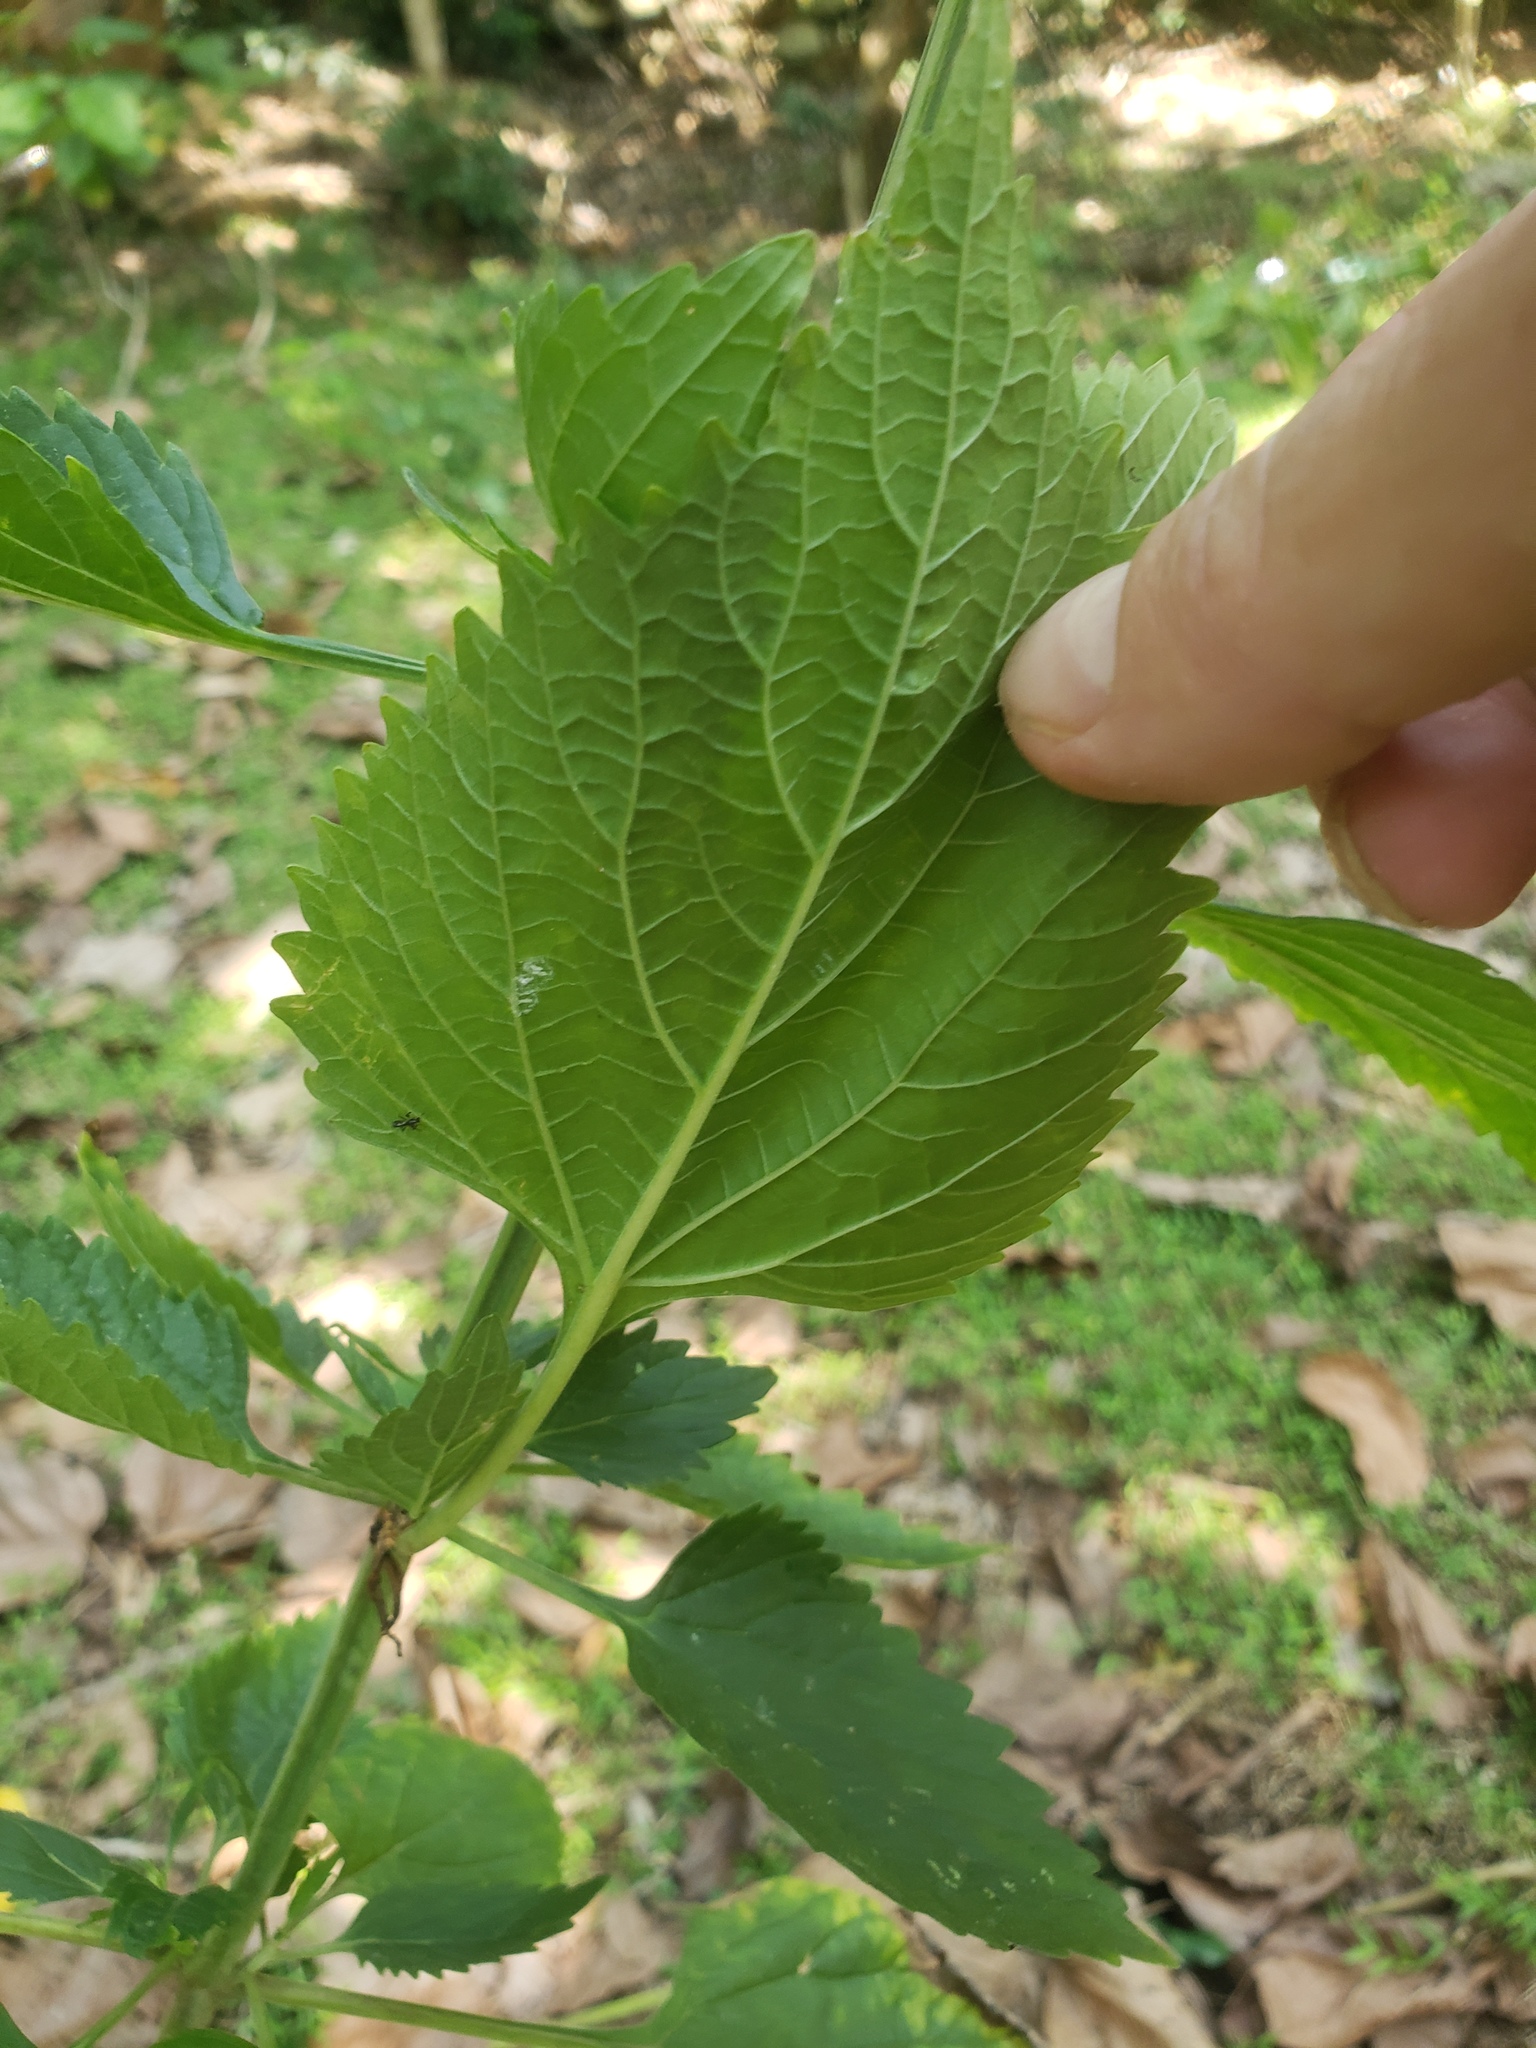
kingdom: Plantae
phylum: Tracheophyta
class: Magnoliopsida
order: Lamiales
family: Lamiaceae
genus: Leonotis
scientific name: Leonotis nepetifolia
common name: Christmas candlestick
